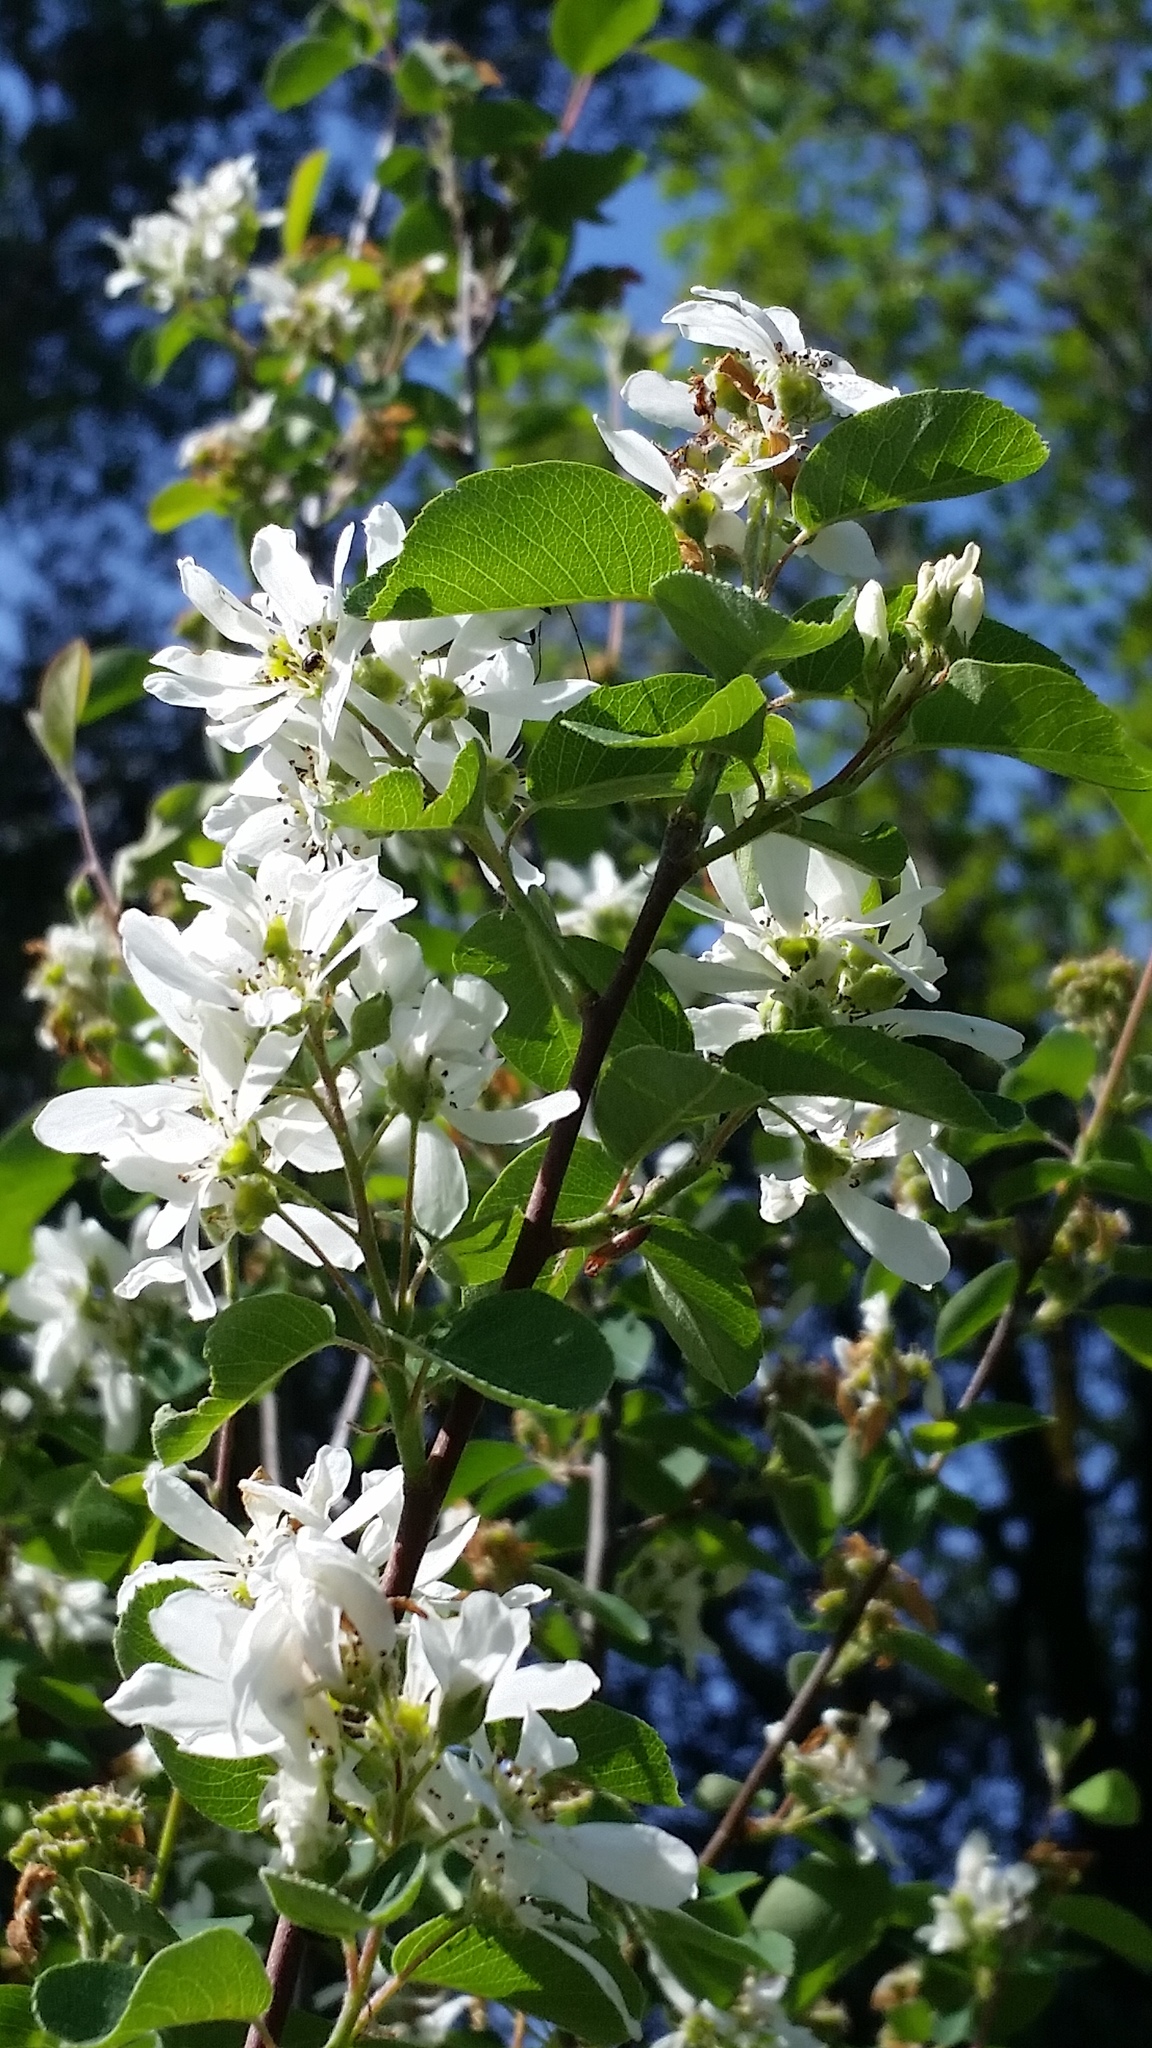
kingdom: Plantae
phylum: Tracheophyta
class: Magnoliopsida
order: Rosales
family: Rosaceae
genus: Amelanchier
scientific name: Amelanchier alnifolia
